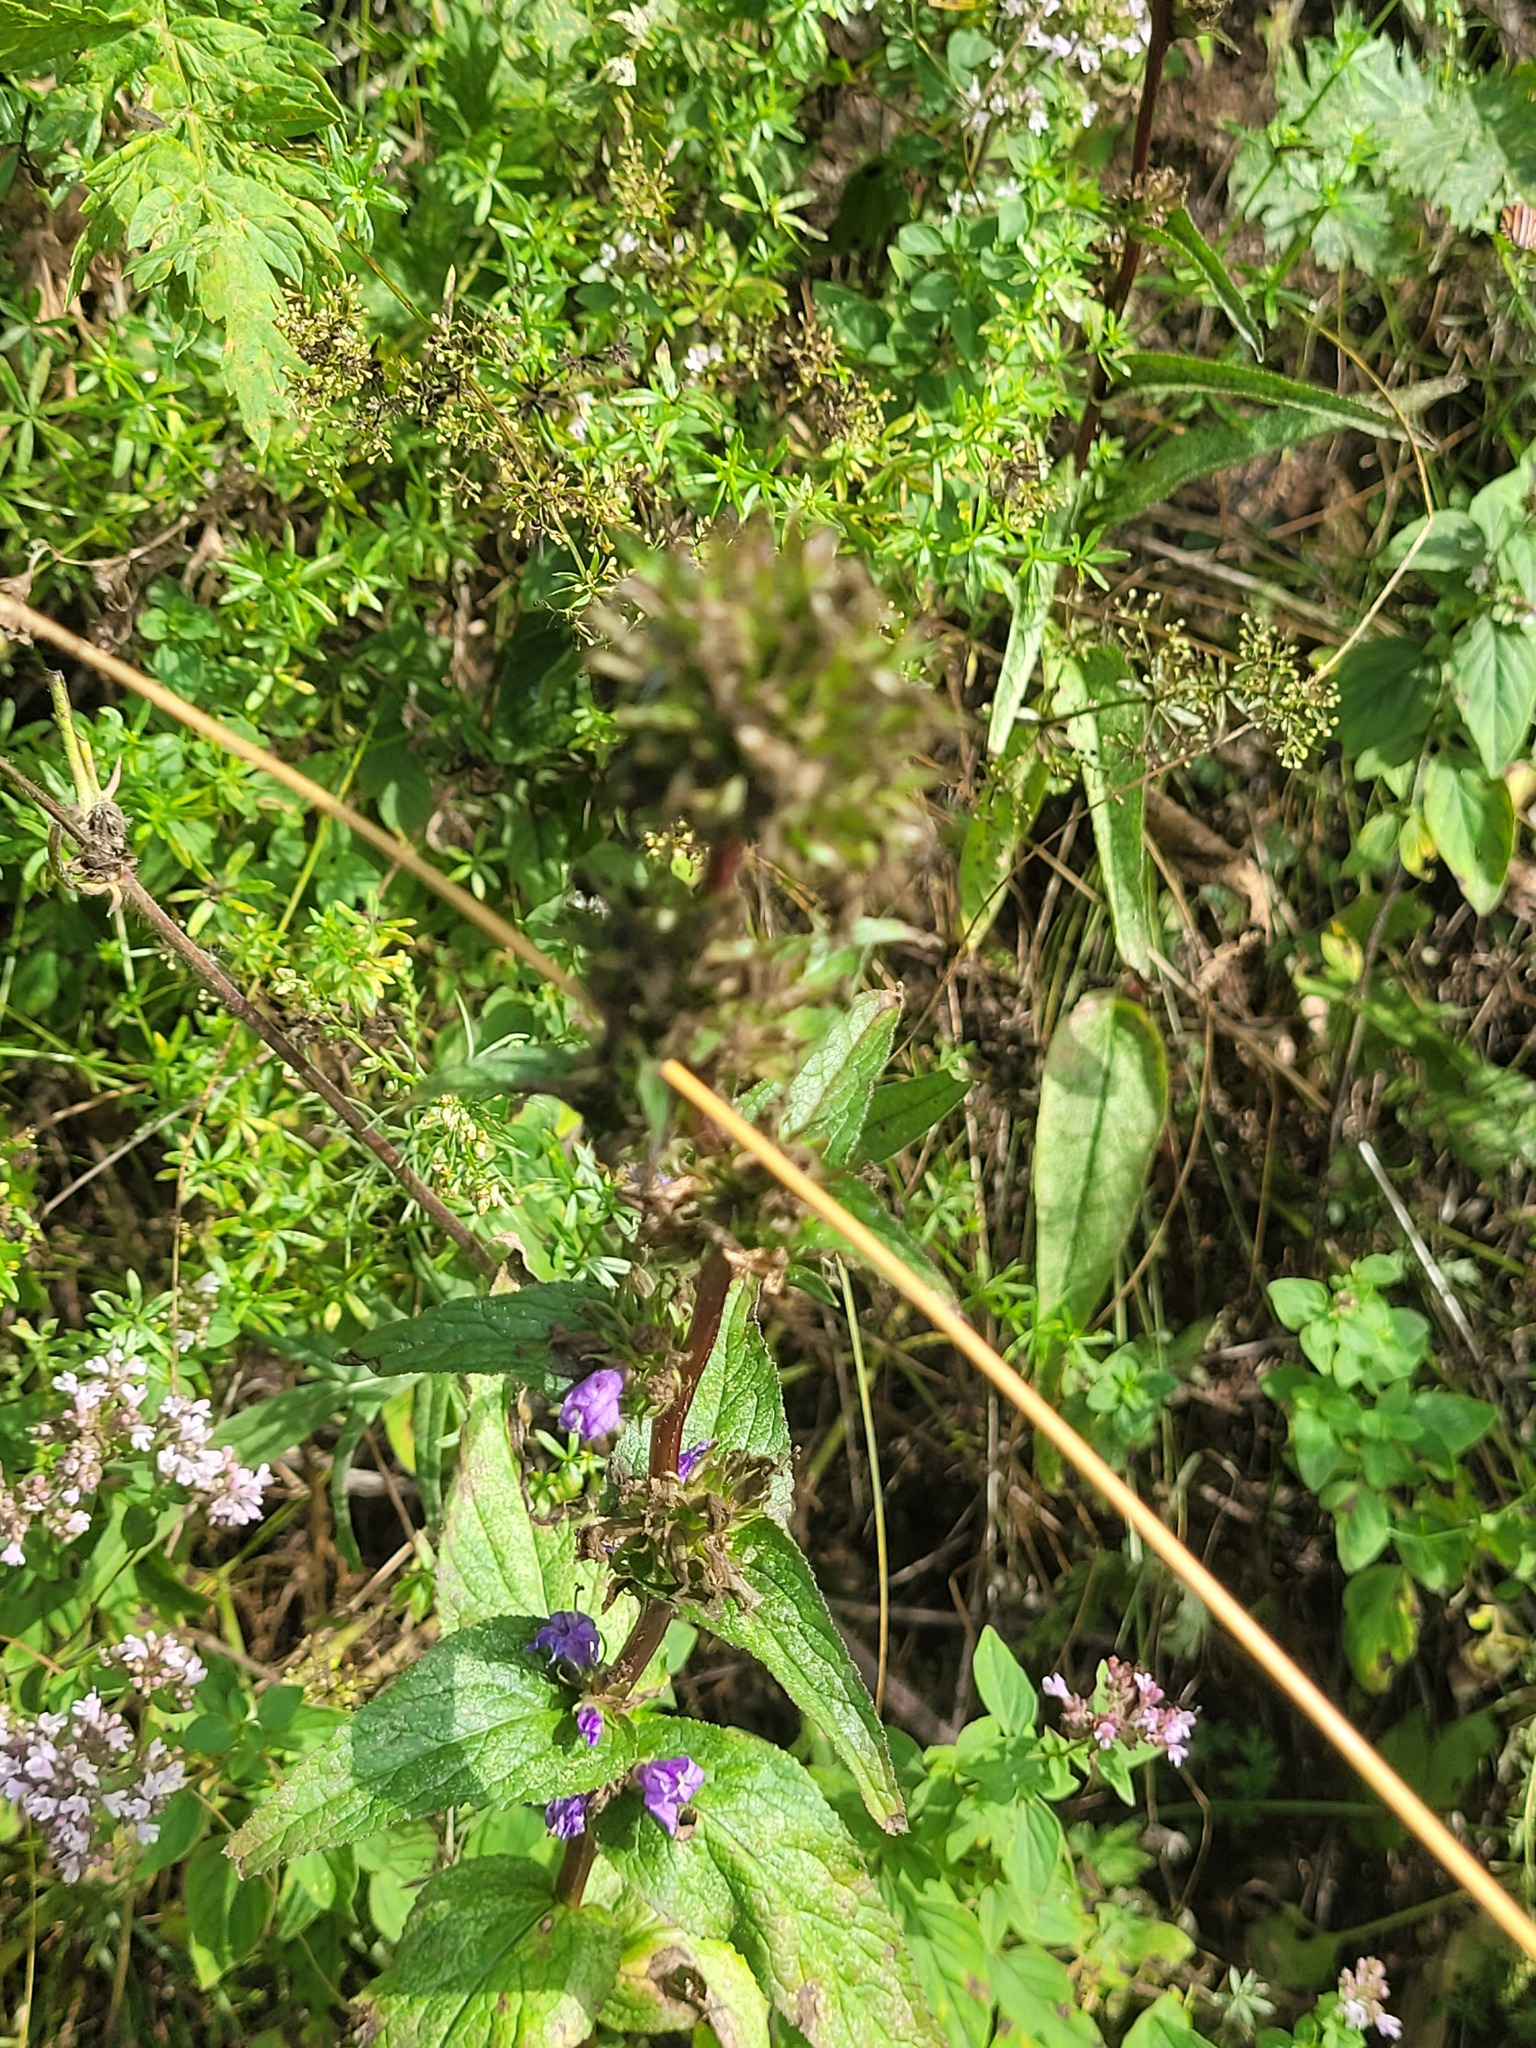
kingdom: Plantae
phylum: Tracheophyta
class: Magnoliopsida
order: Asterales
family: Campanulaceae
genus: Campanula
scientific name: Campanula glomerata
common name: Clustered bellflower
